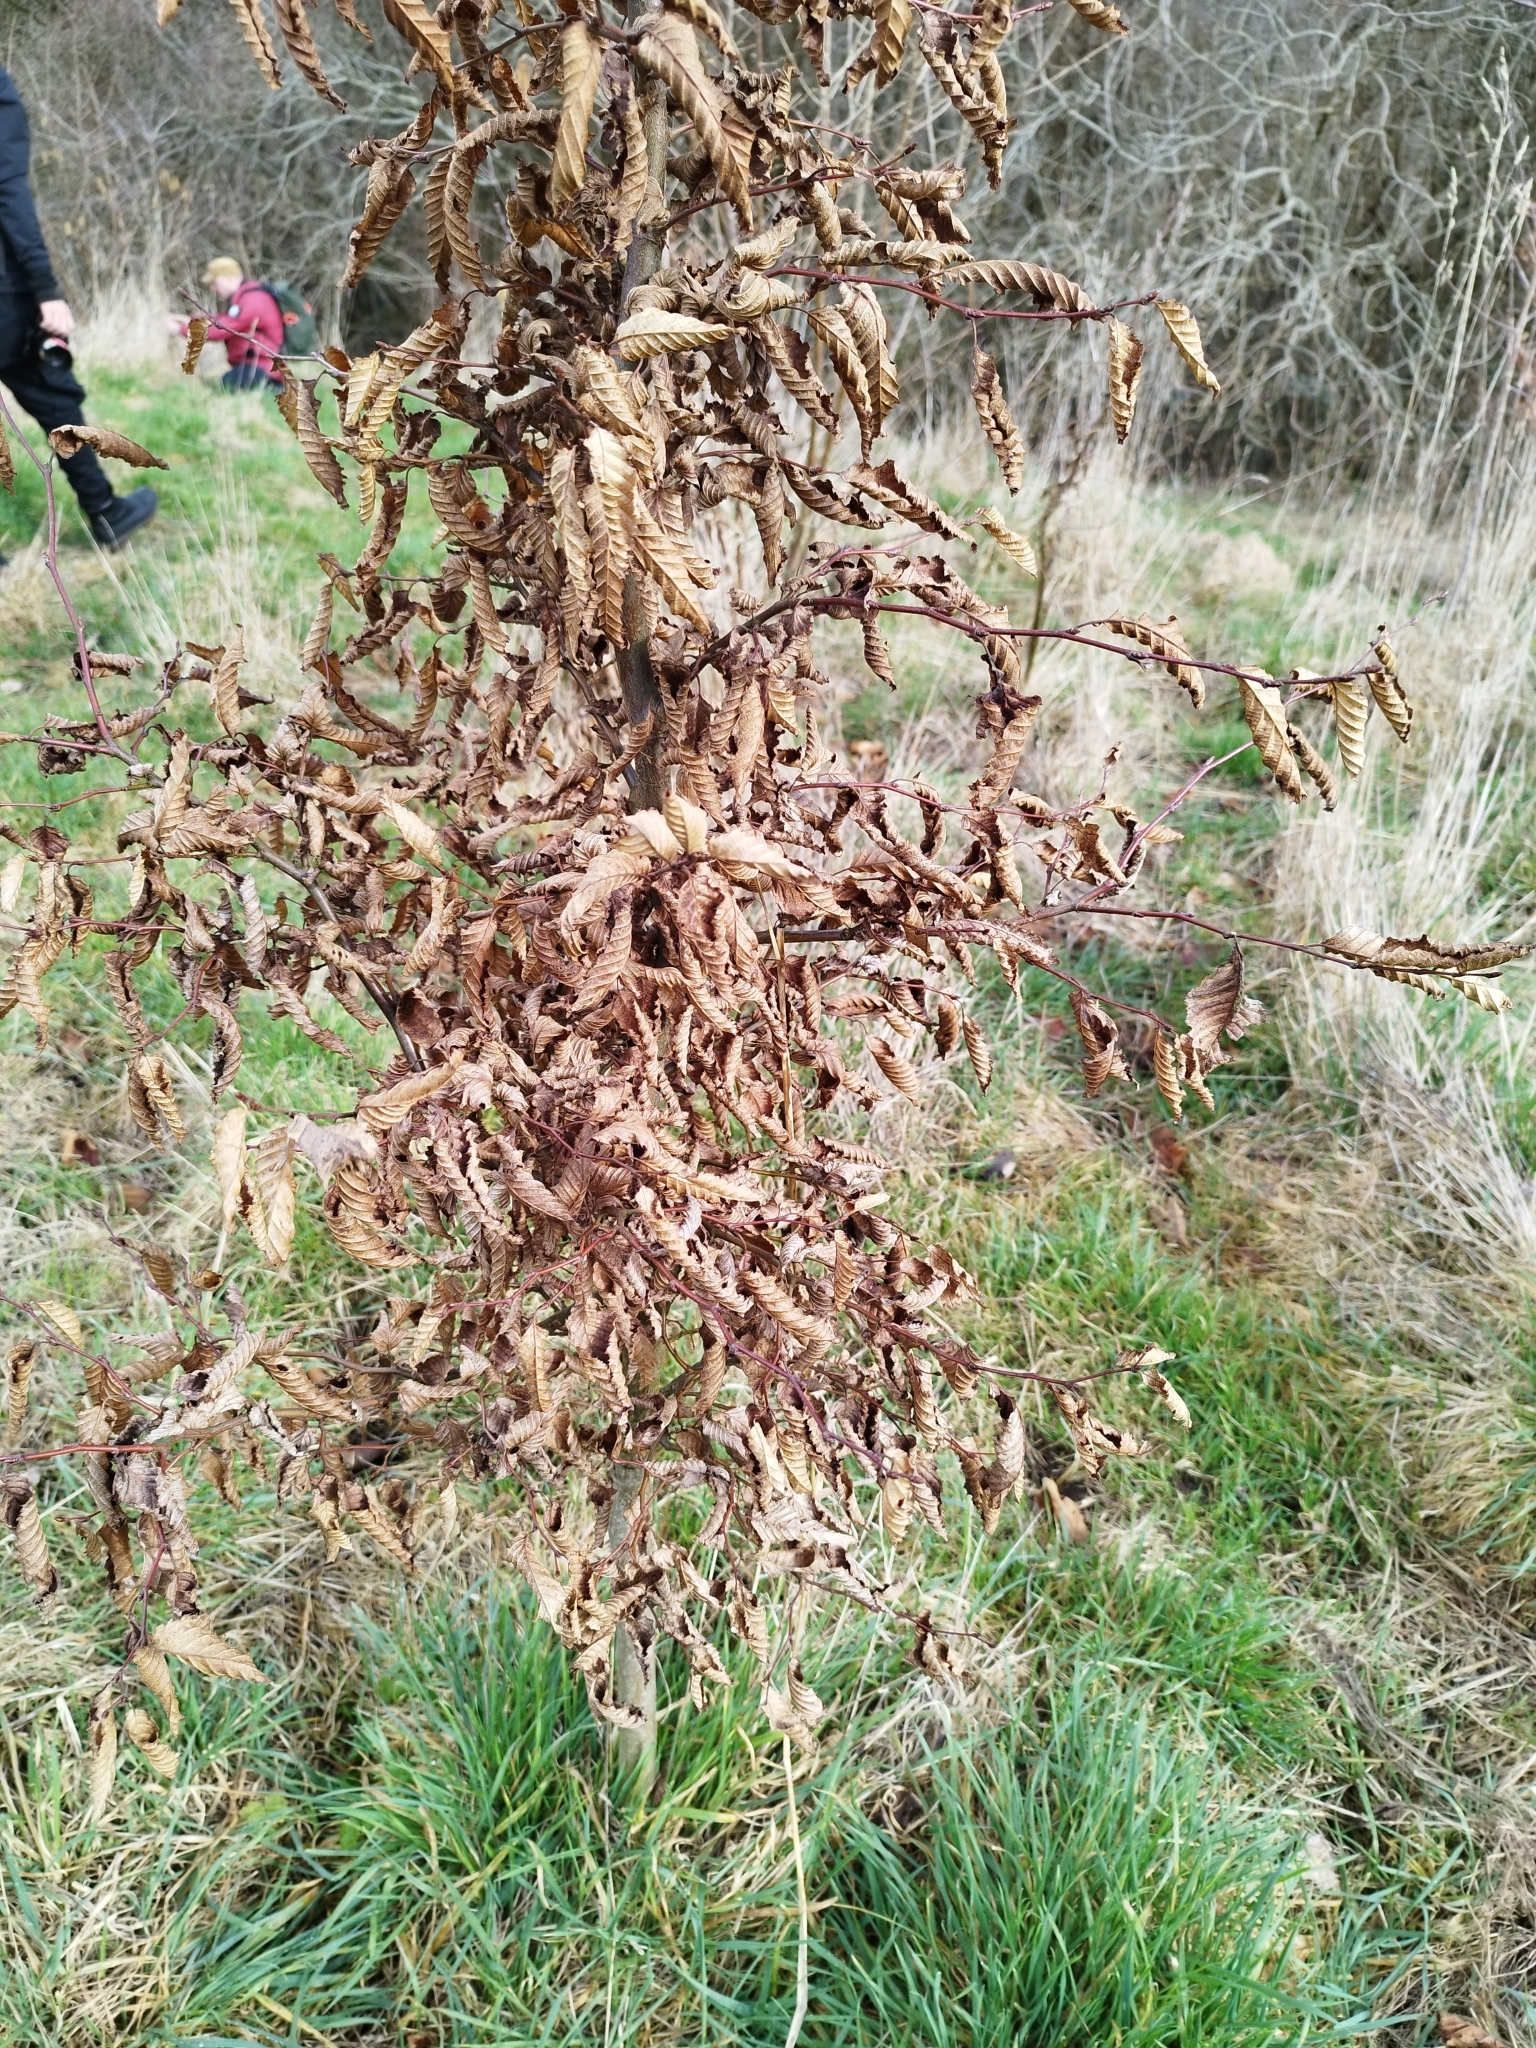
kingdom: Plantae
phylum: Tracheophyta
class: Magnoliopsida
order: Fagales
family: Betulaceae
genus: Carpinus
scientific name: Carpinus betulus
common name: Hornbeam
